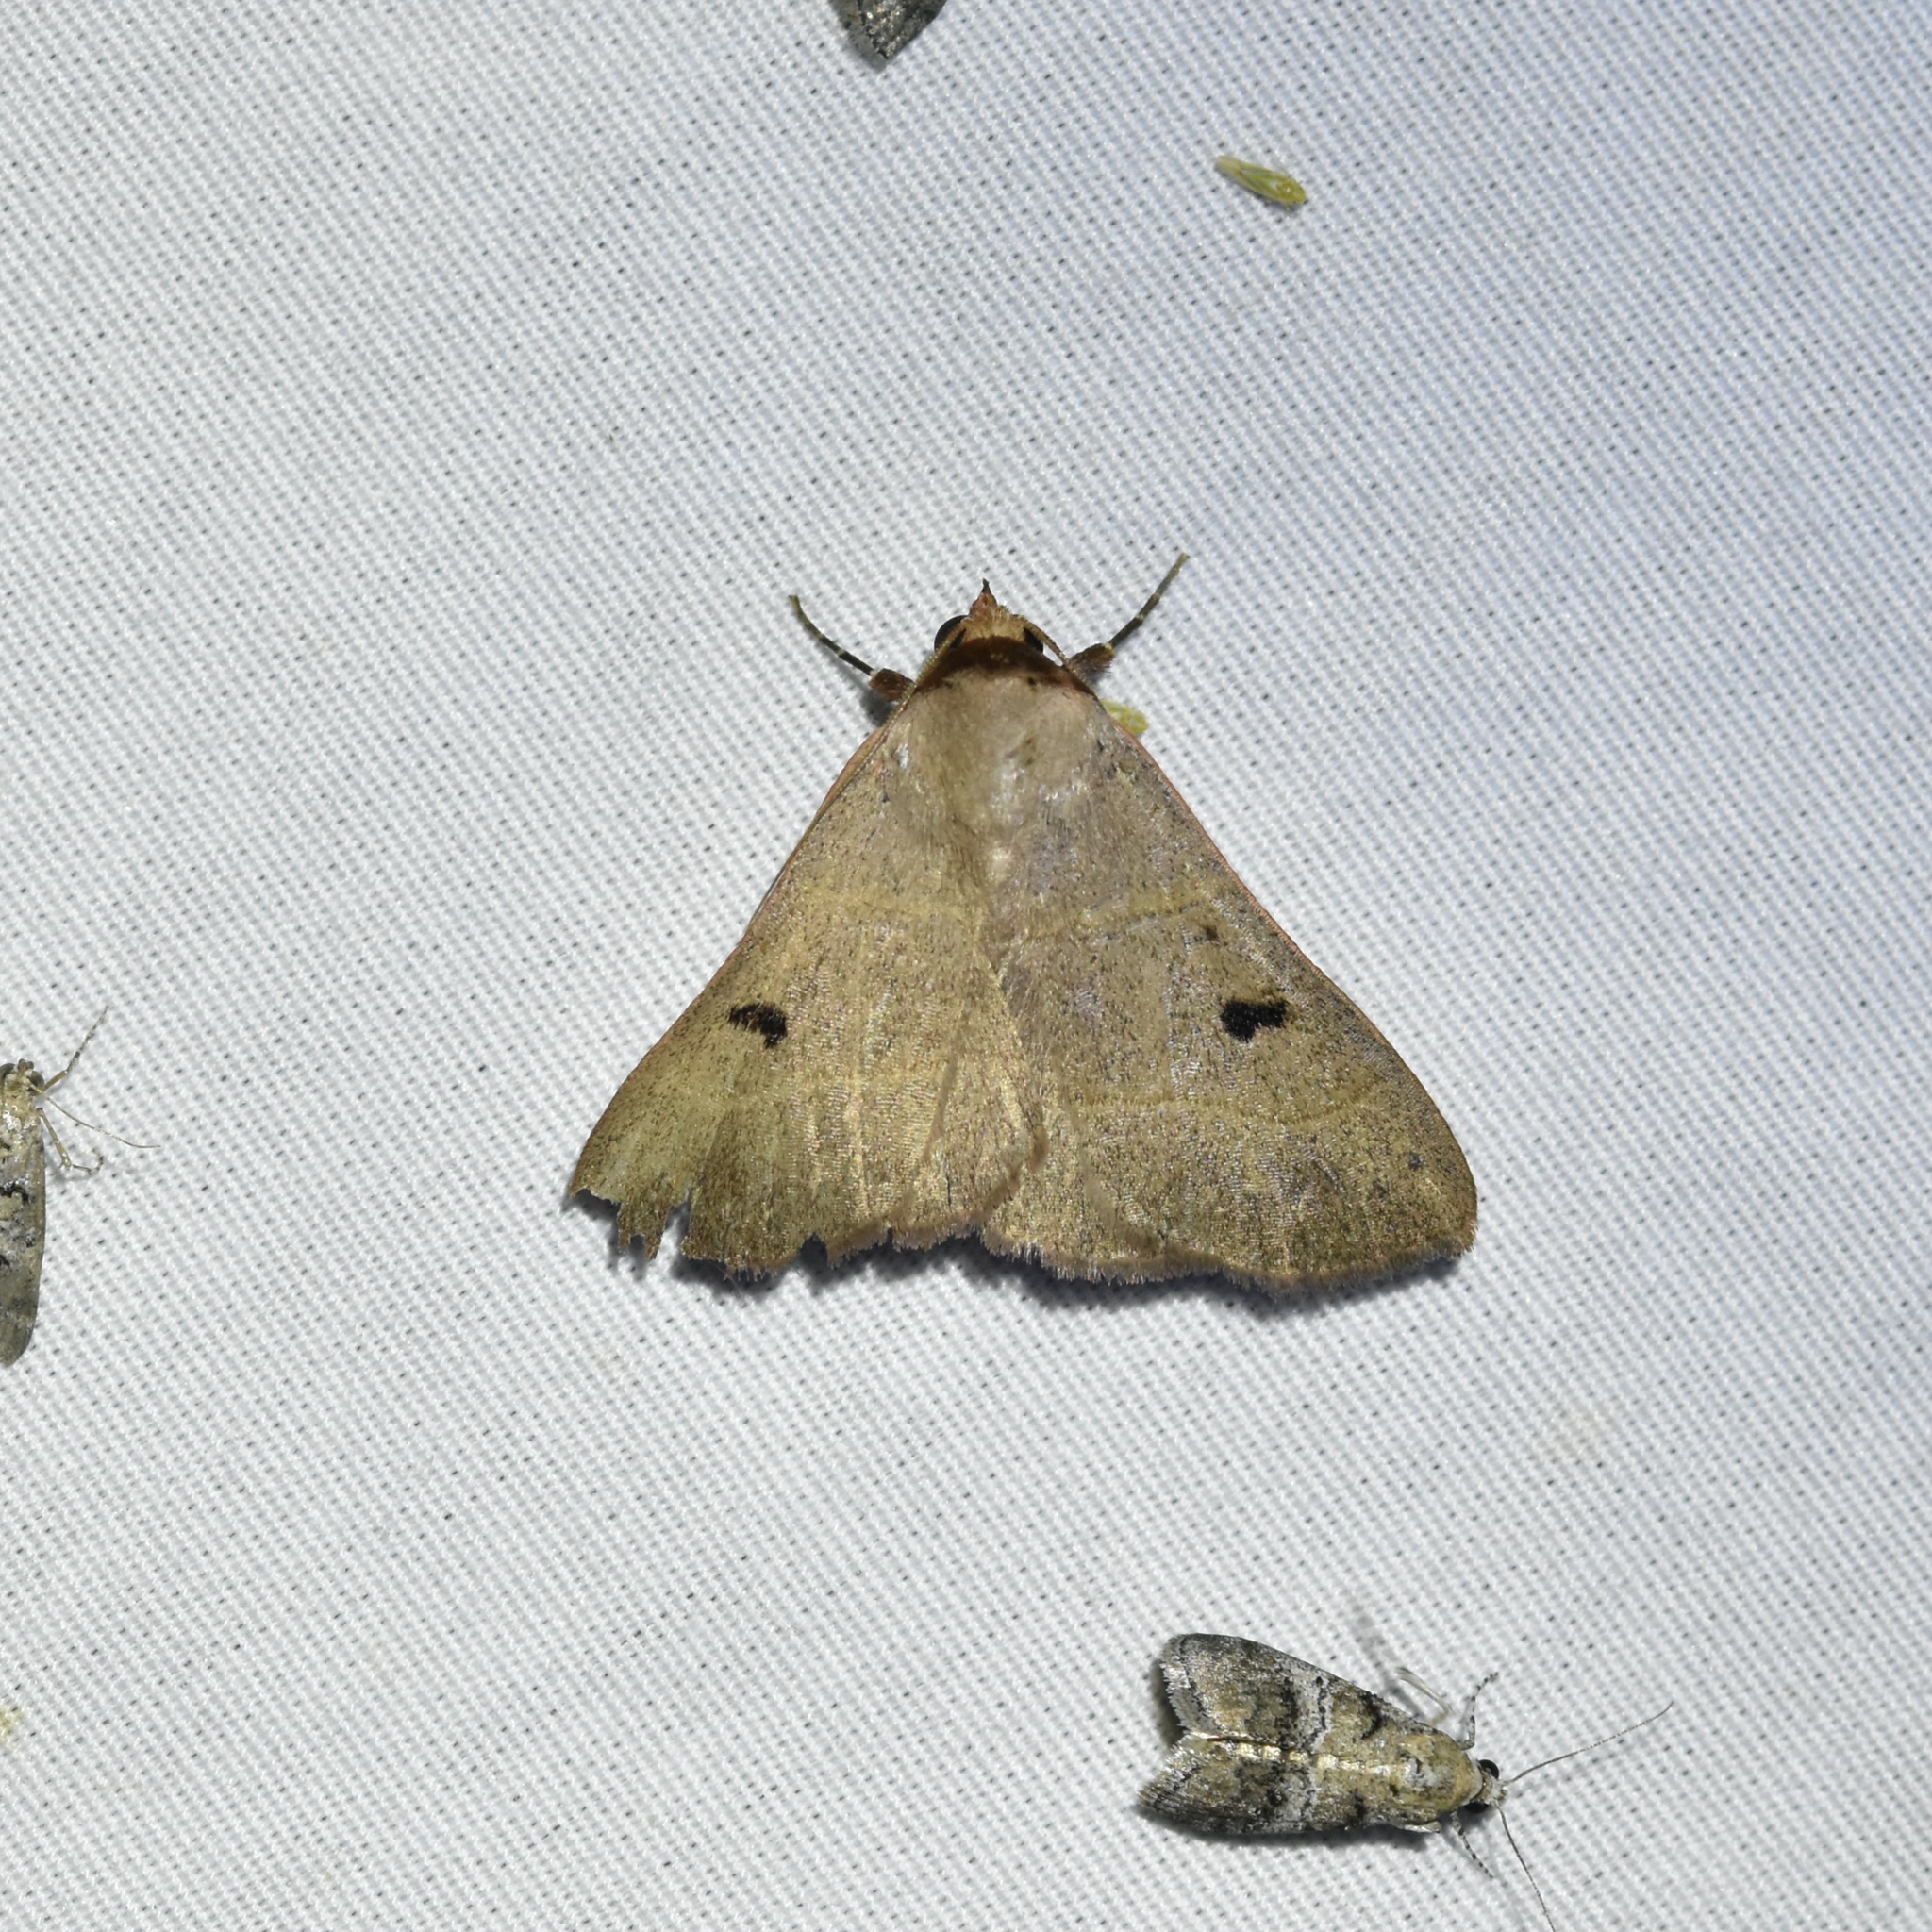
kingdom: Animalia
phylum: Arthropoda
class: Insecta
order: Lepidoptera
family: Erebidae
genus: Panopoda
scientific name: Panopoda rufimargo
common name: Red-lined panopoda moth
